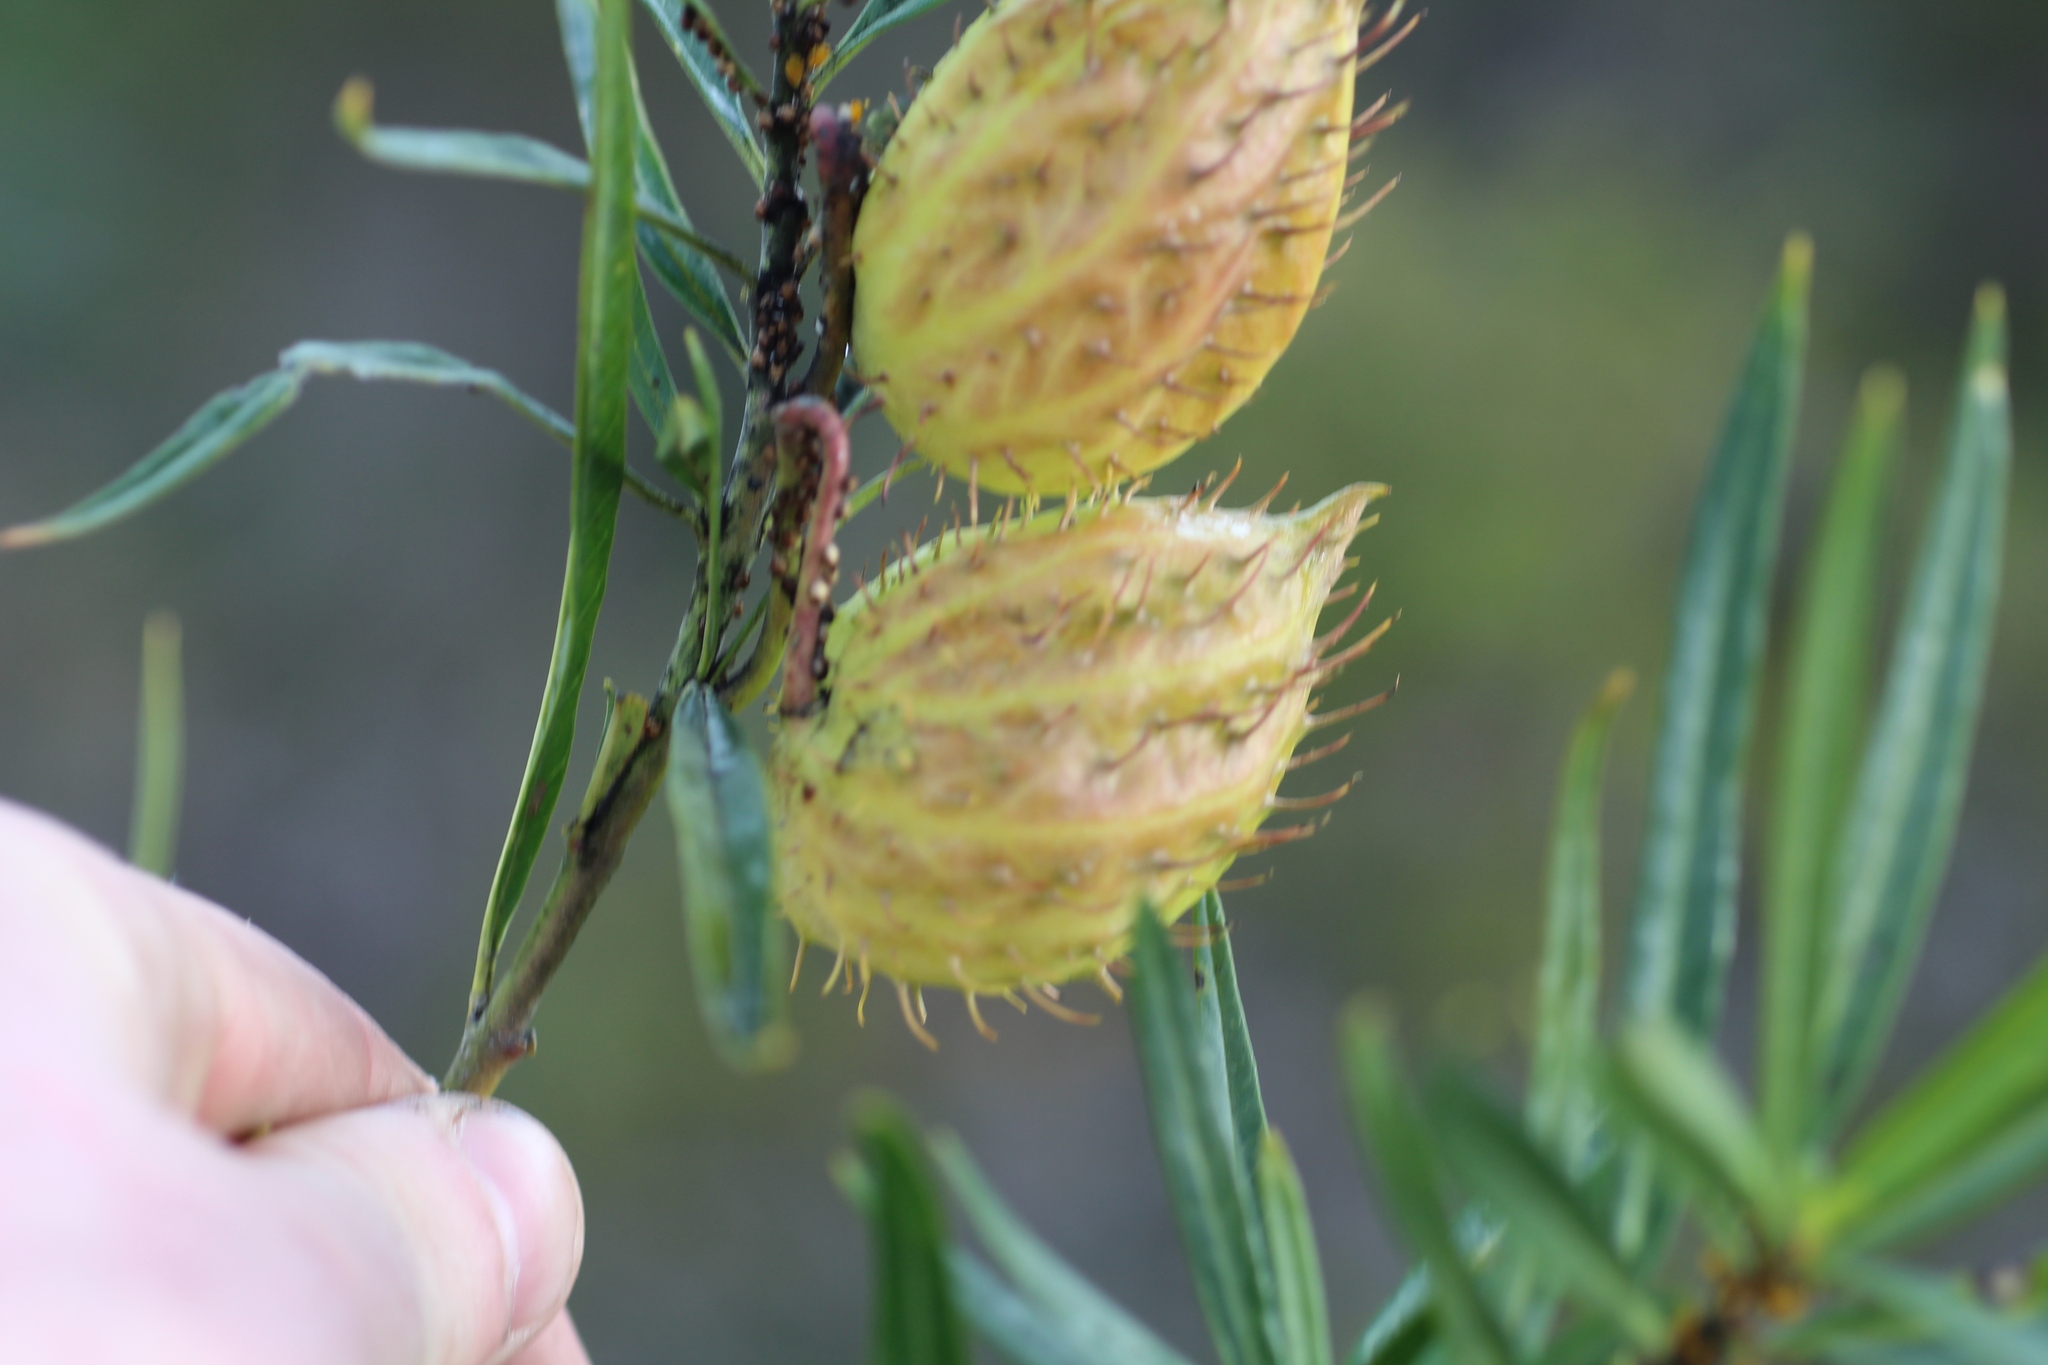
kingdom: Plantae
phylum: Tracheophyta
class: Magnoliopsida
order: Gentianales
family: Apocynaceae
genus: Gomphocarpus
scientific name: Gomphocarpus fruticosus
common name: Milkweed
